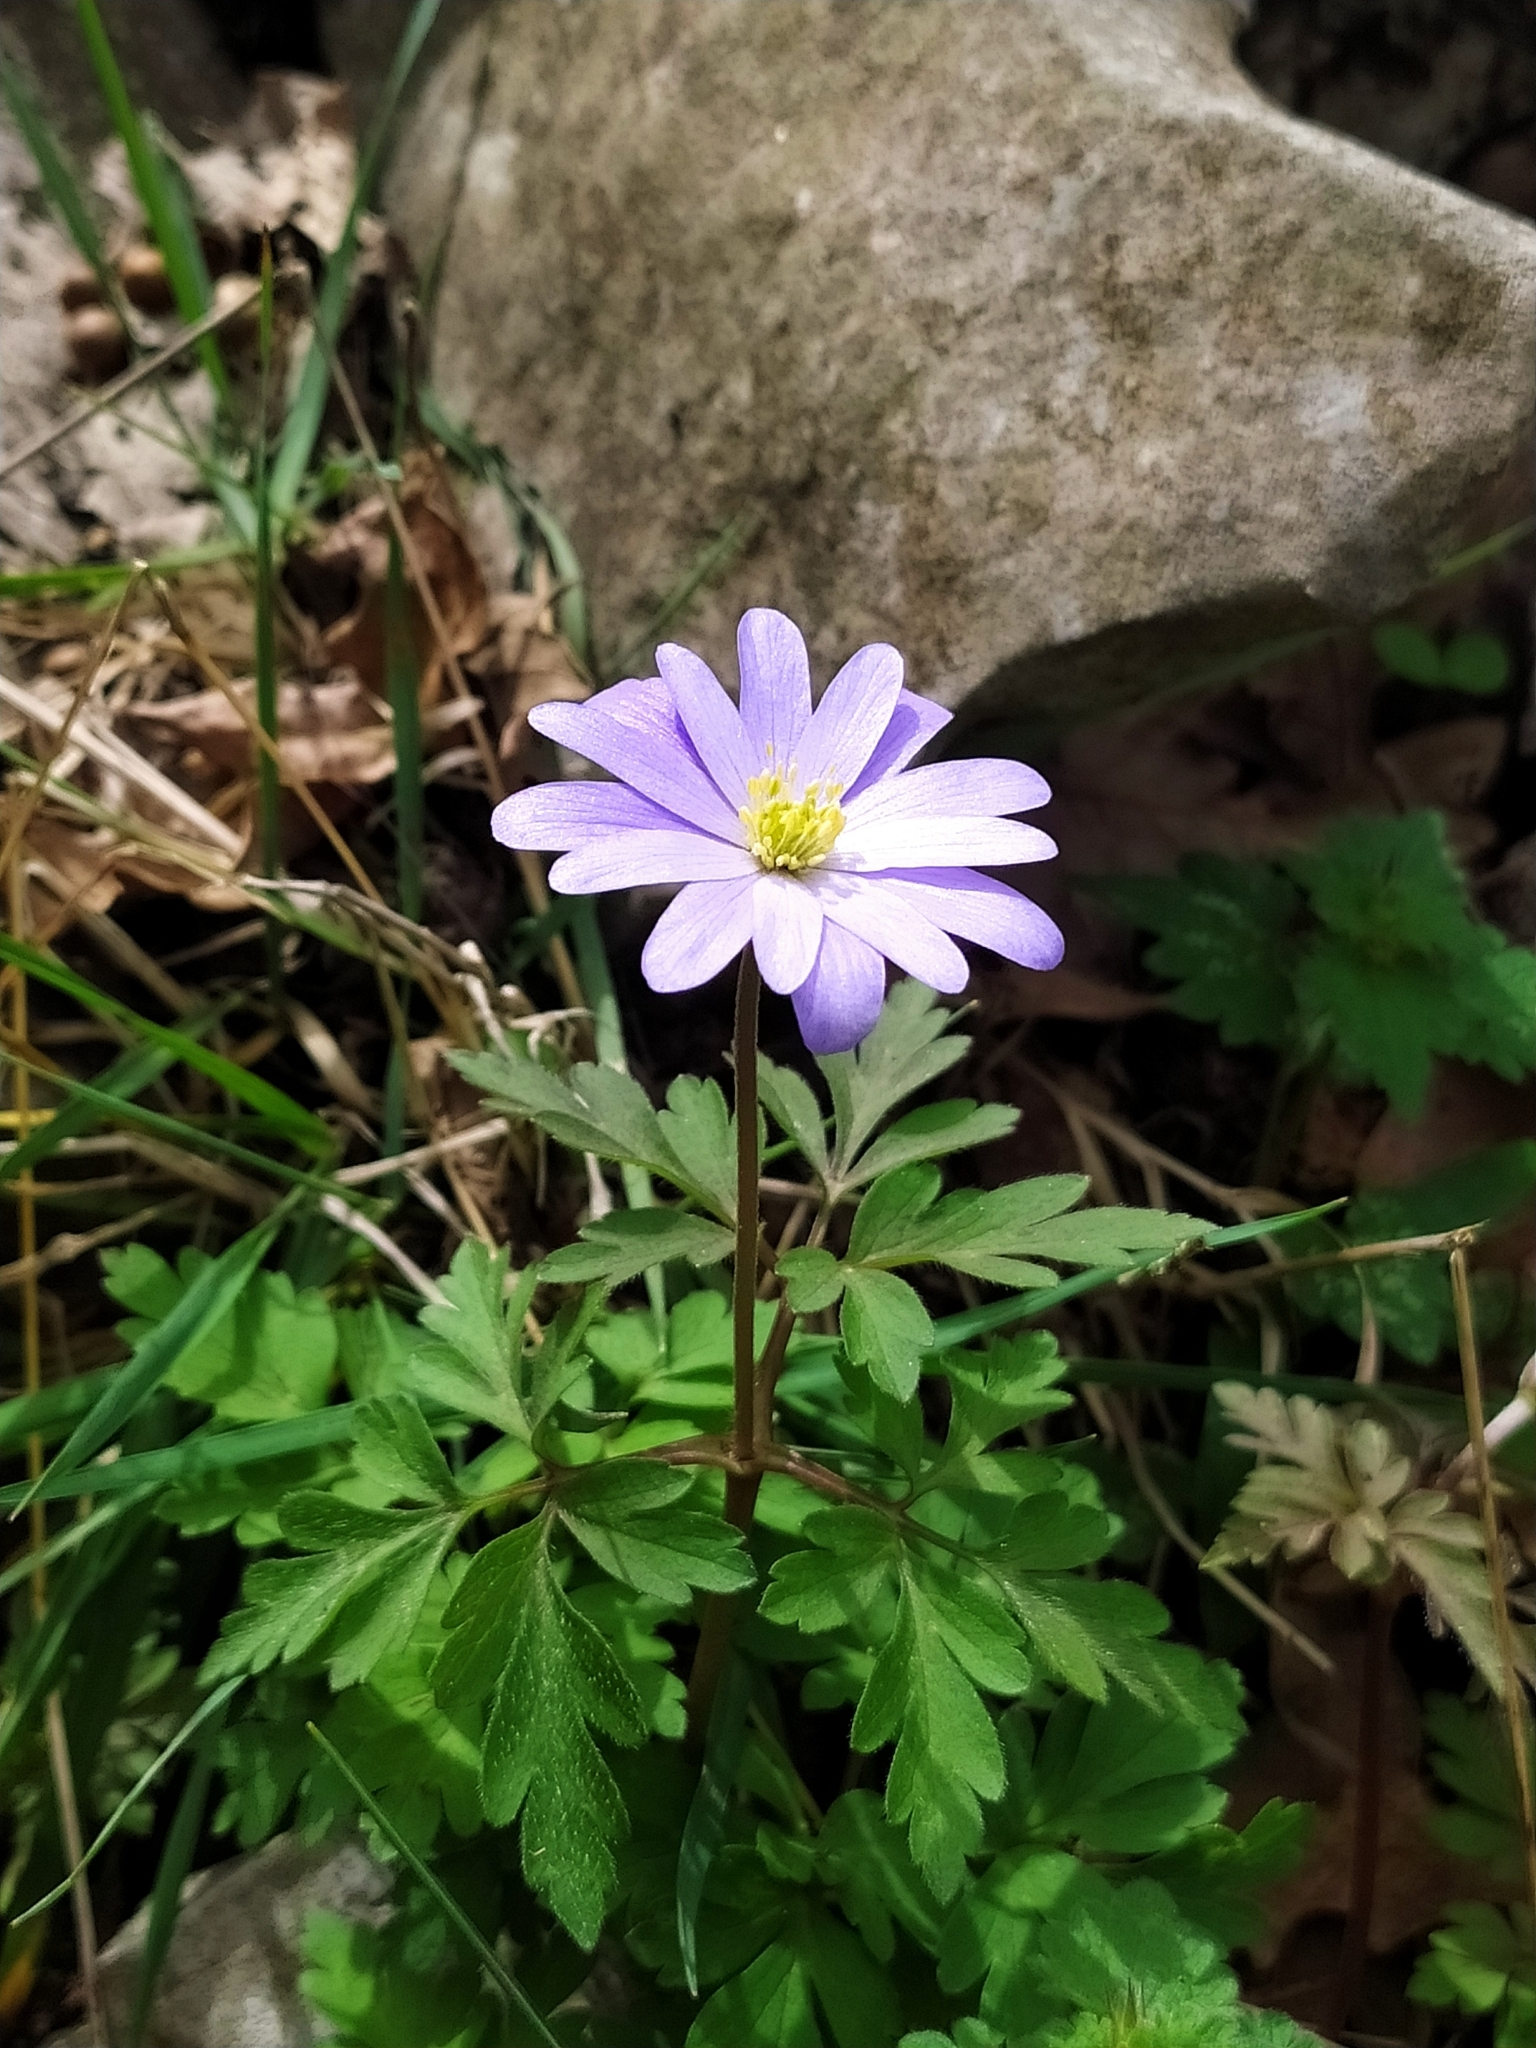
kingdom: Plantae
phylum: Tracheophyta
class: Magnoliopsida
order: Ranunculales
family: Ranunculaceae
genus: Anemone
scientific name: Anemone apennina
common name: Blue anemone
